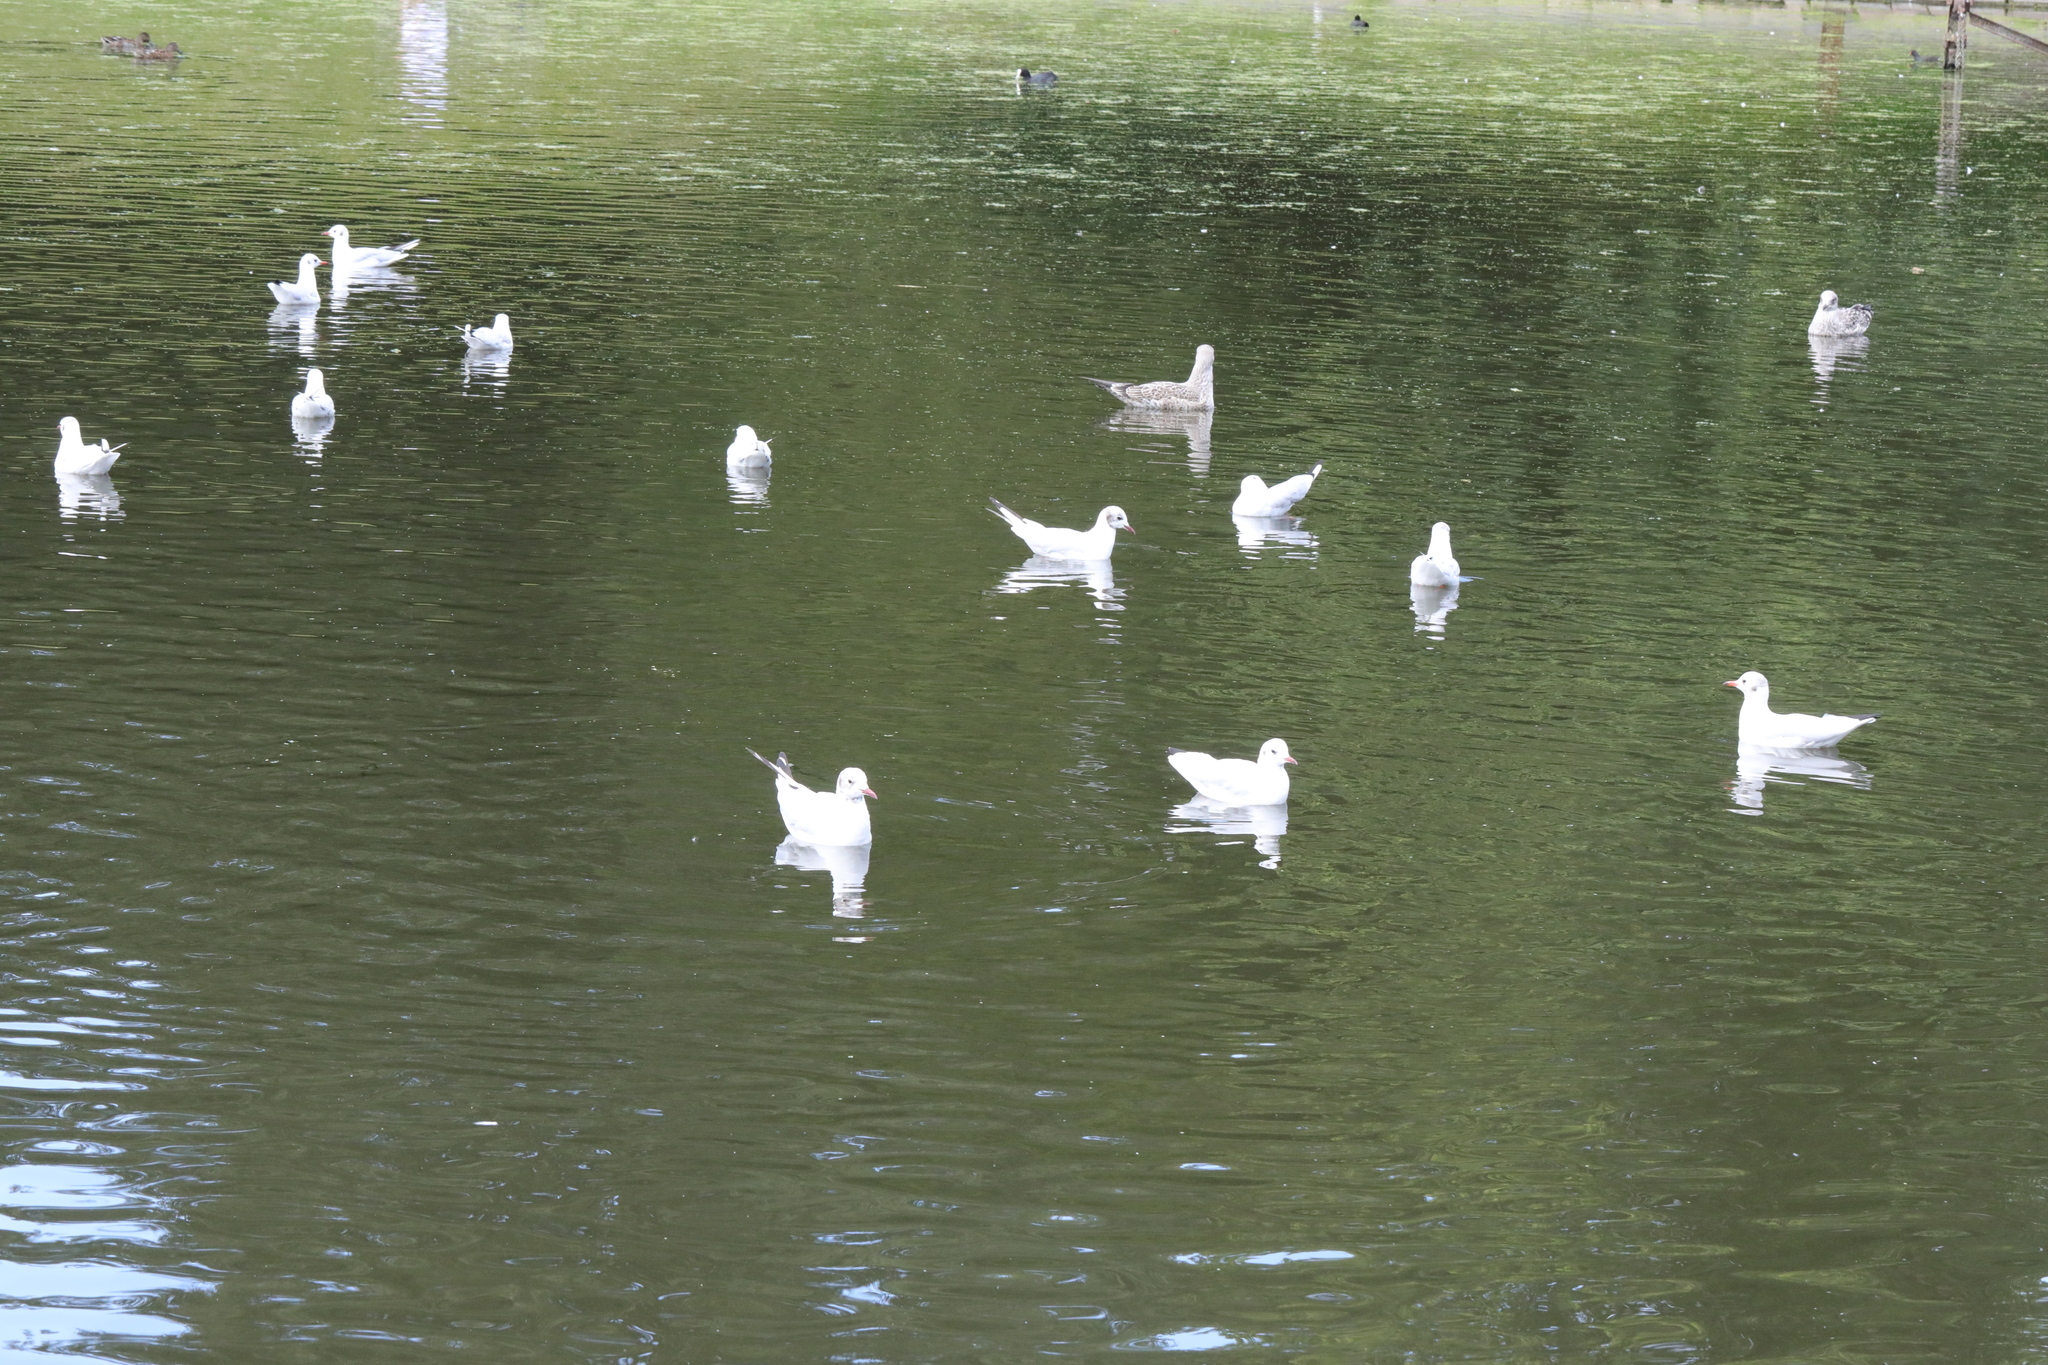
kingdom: Animalia
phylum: Chordata
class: Aves
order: Charadriiformes
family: Laridae
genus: Chroicocephalus
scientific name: Chroicocephalus ridibundus
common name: Black-headed gull
